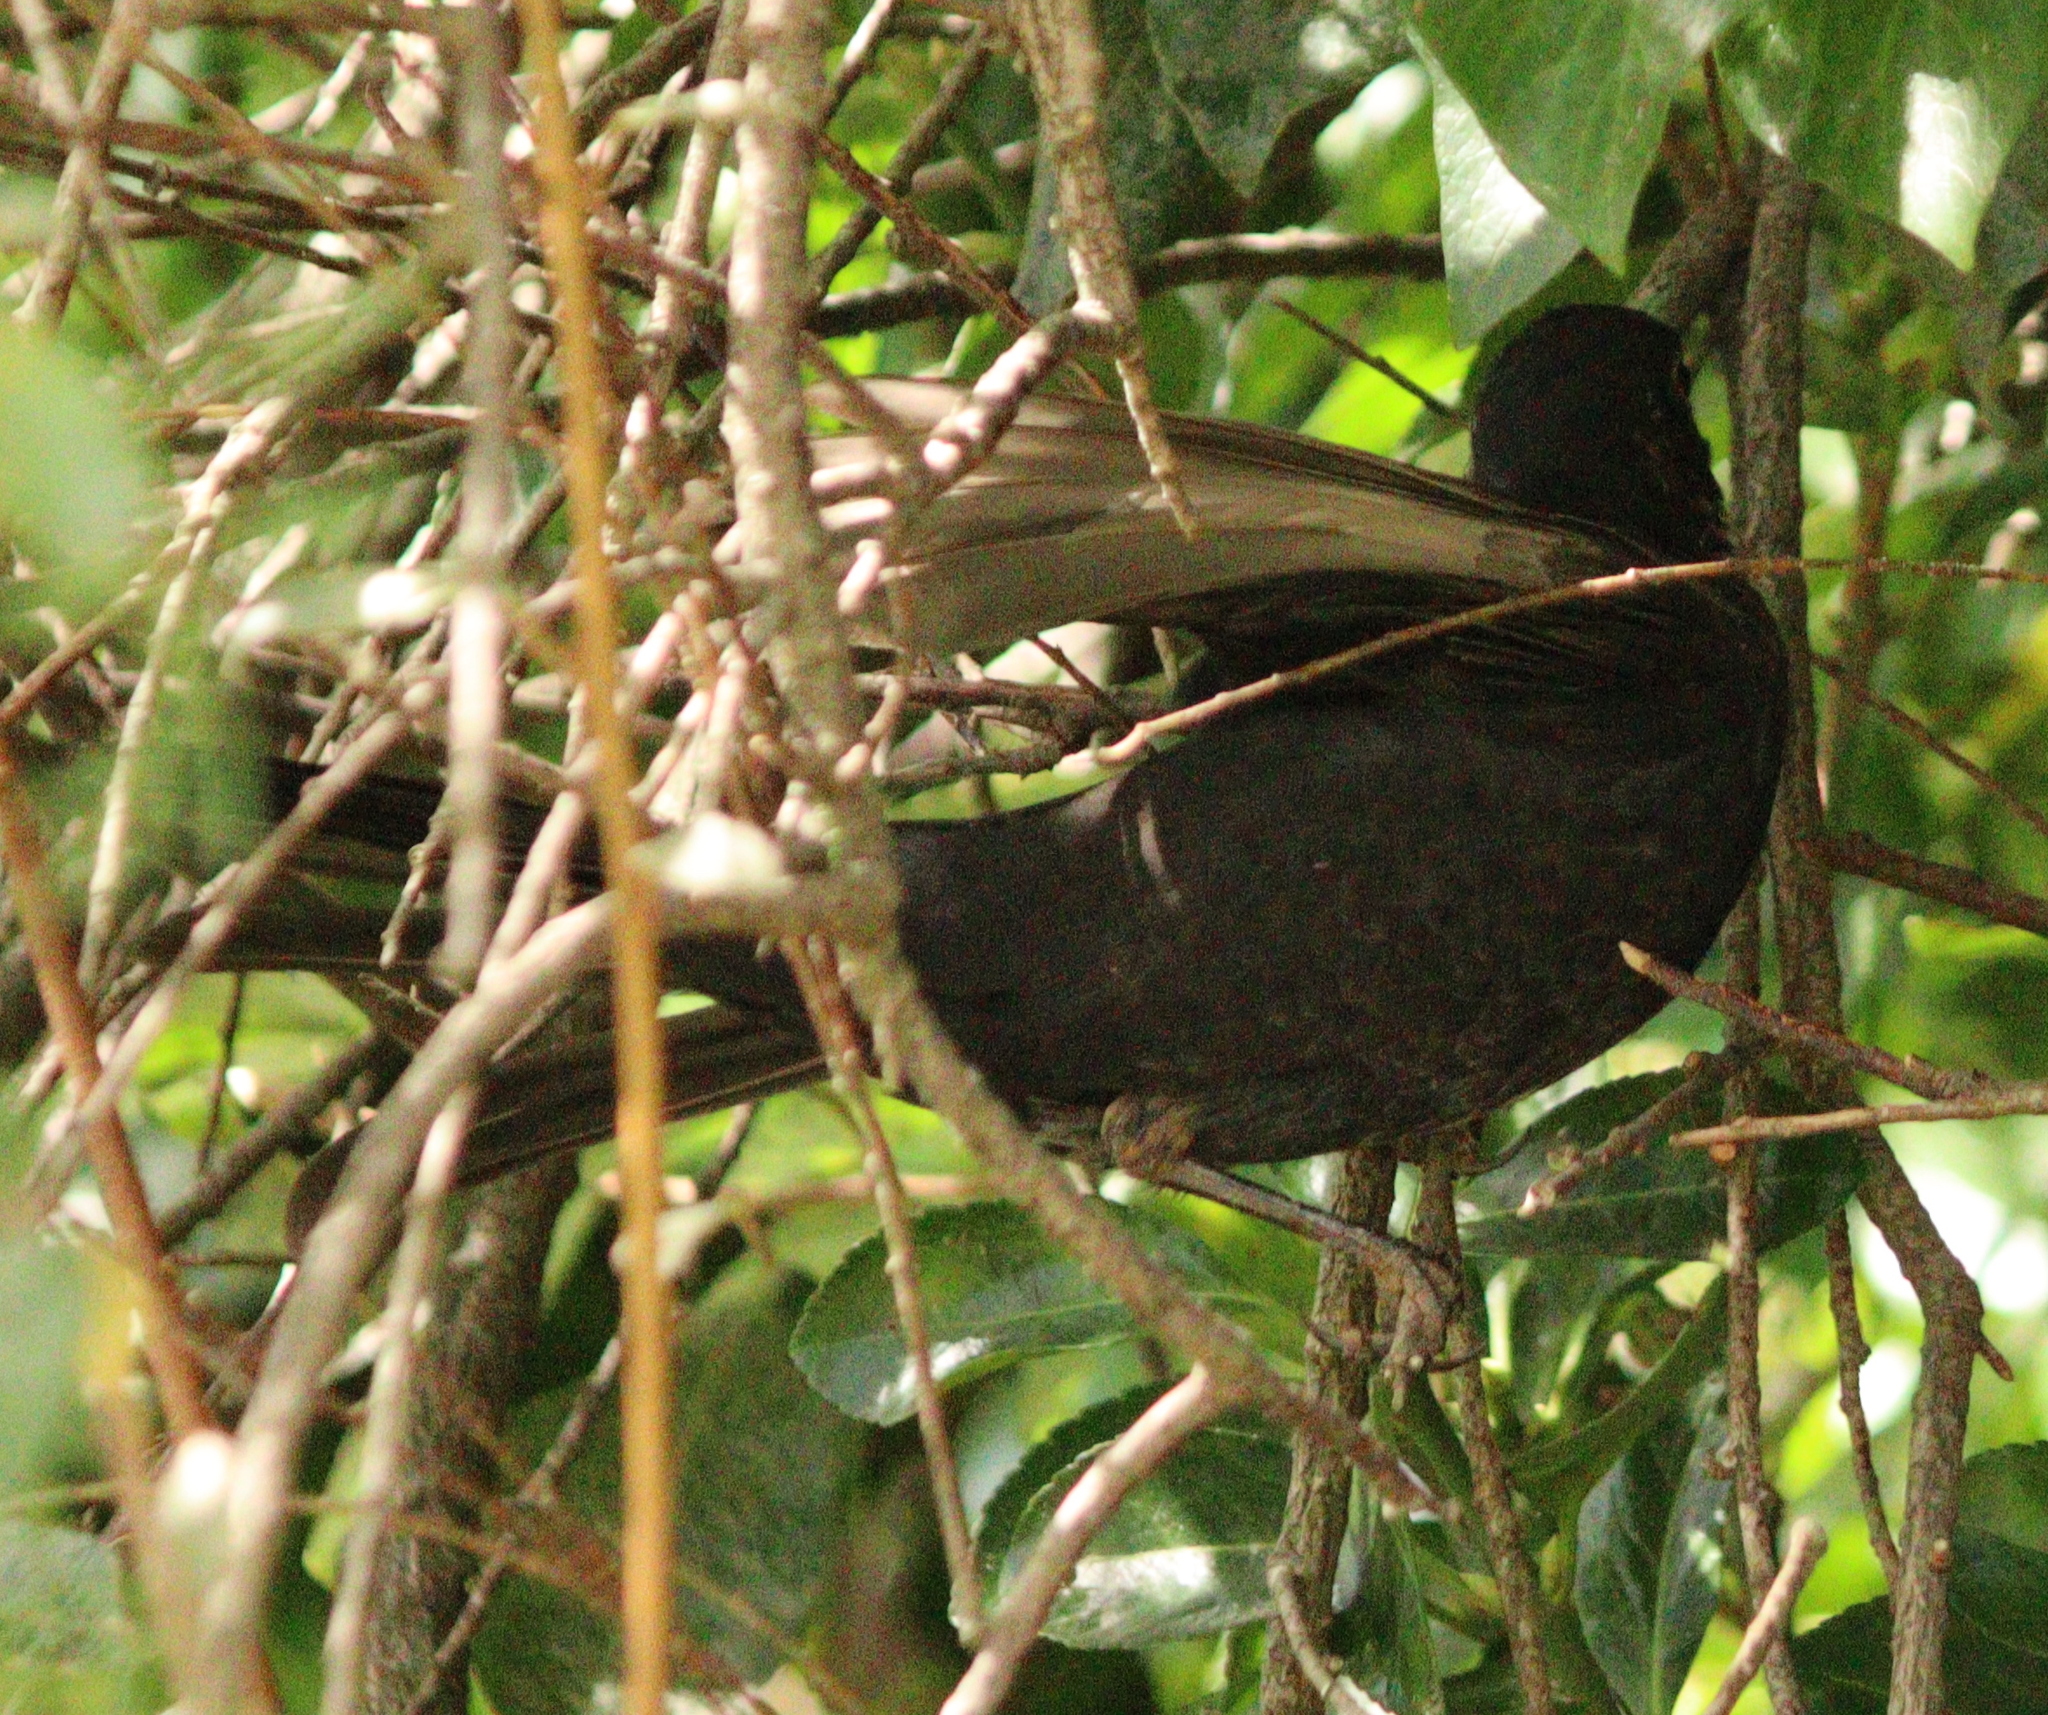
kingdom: Animalia
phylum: Chordata
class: Aves
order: Passeriformes
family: Turdidae
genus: Turdus
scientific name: Turdus merula
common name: Common blackbird
